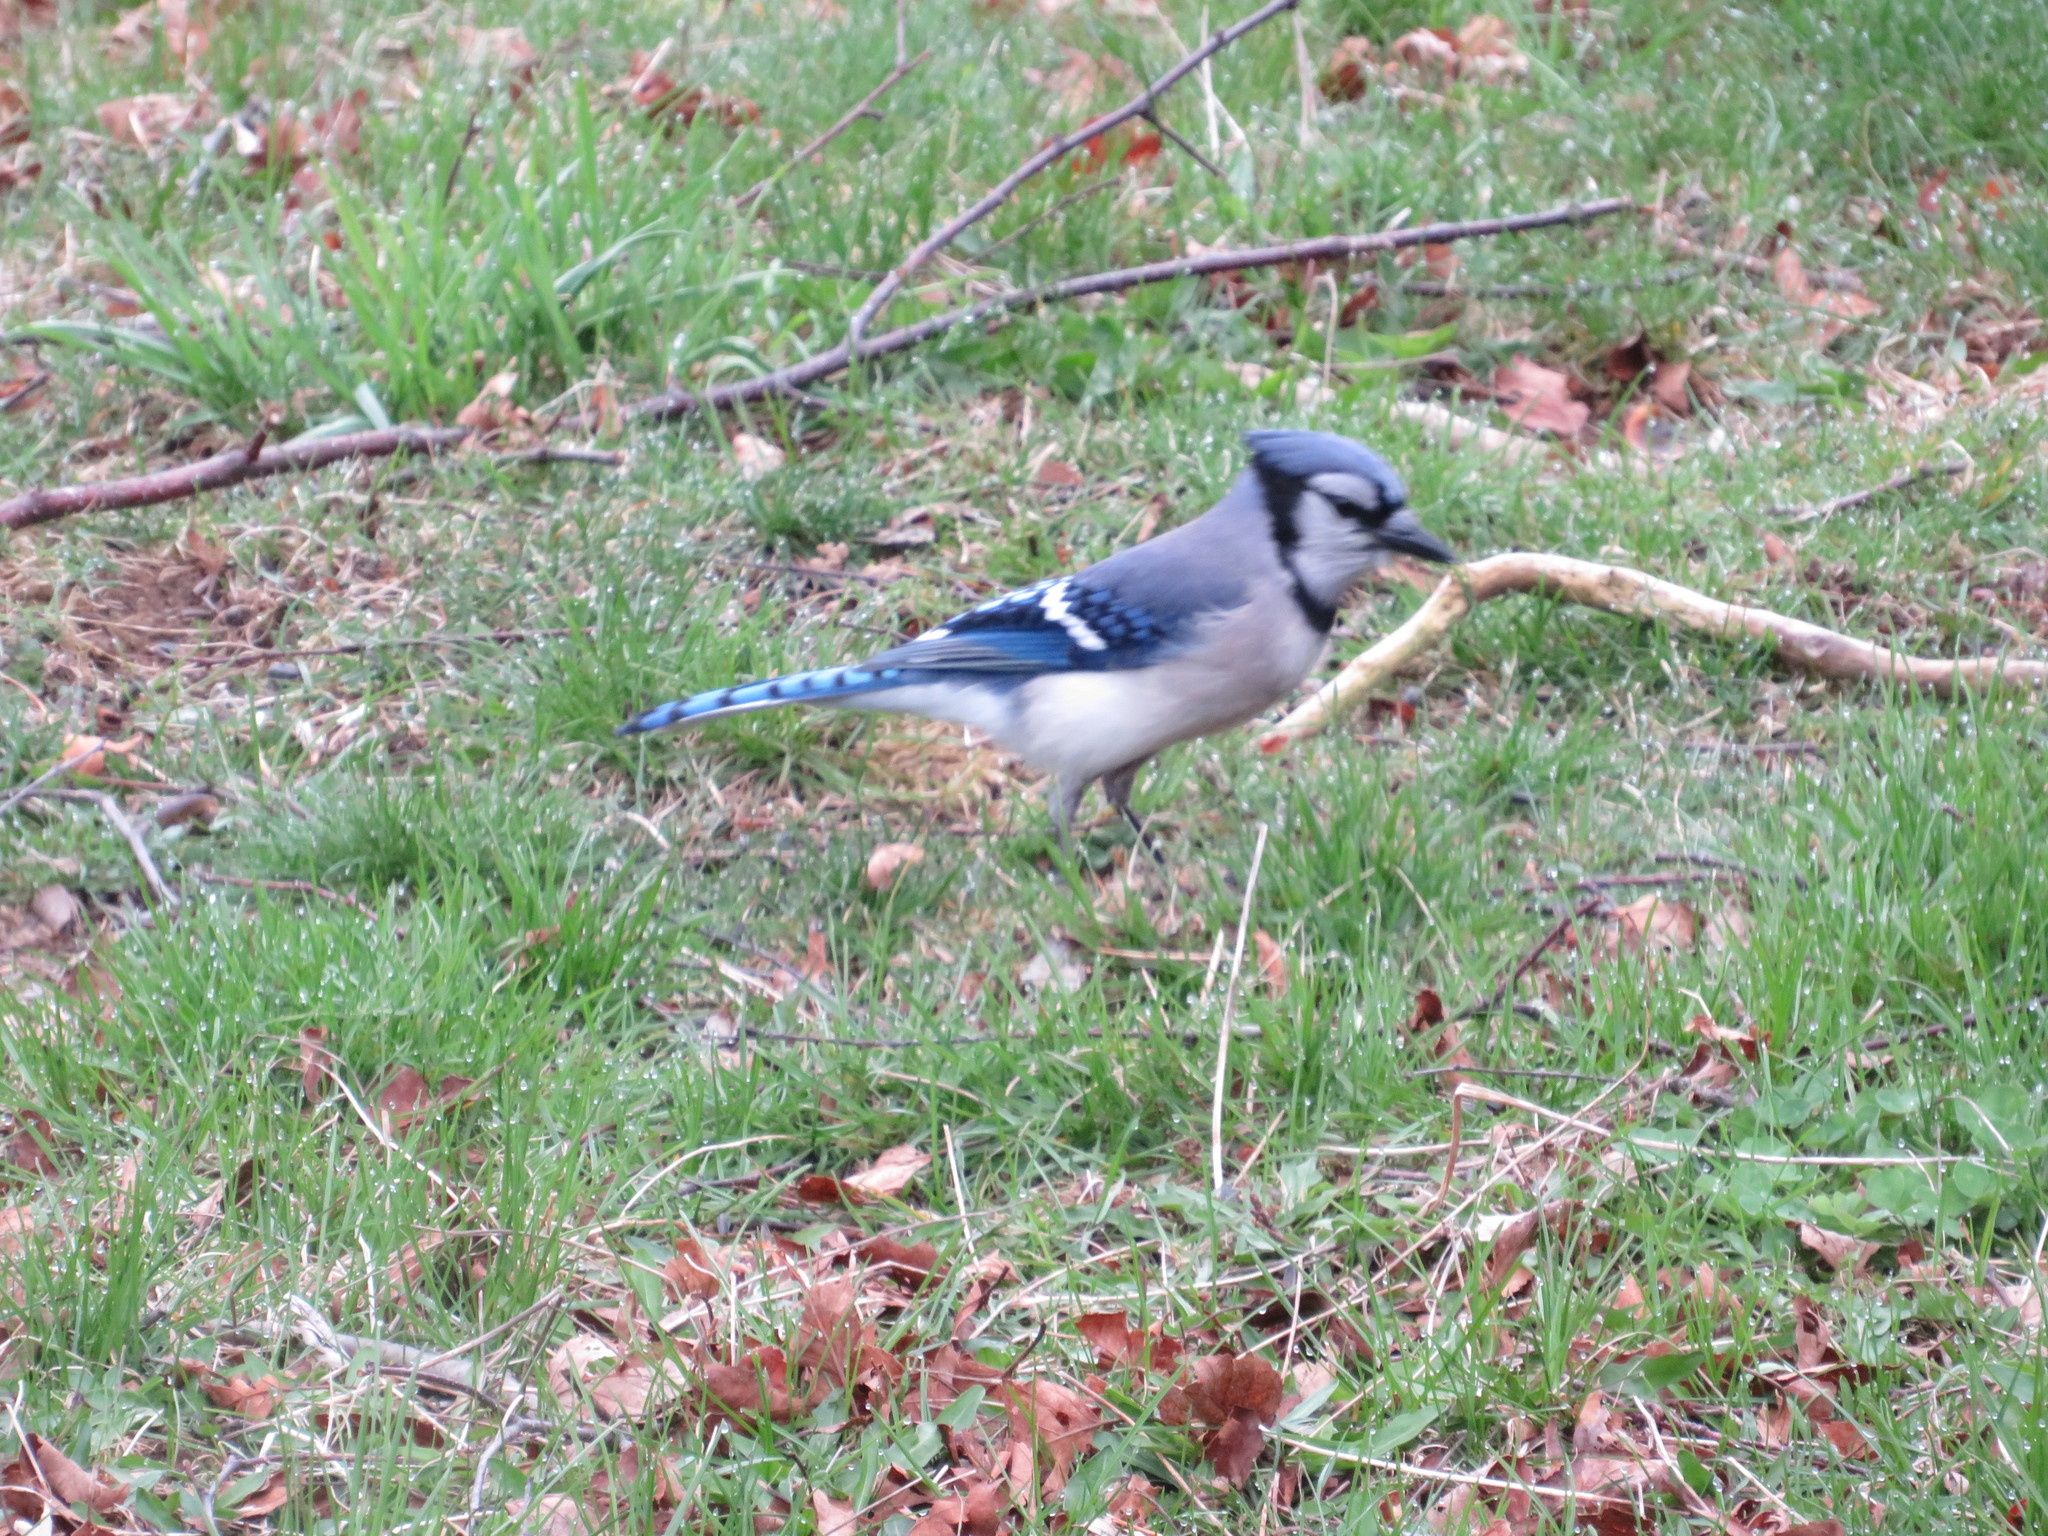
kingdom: Animalia
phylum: Chordata
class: Aves
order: Passeriformes
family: Corvidae
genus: Cyanocitta
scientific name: Cyanocitta cristata
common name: Blue jay
